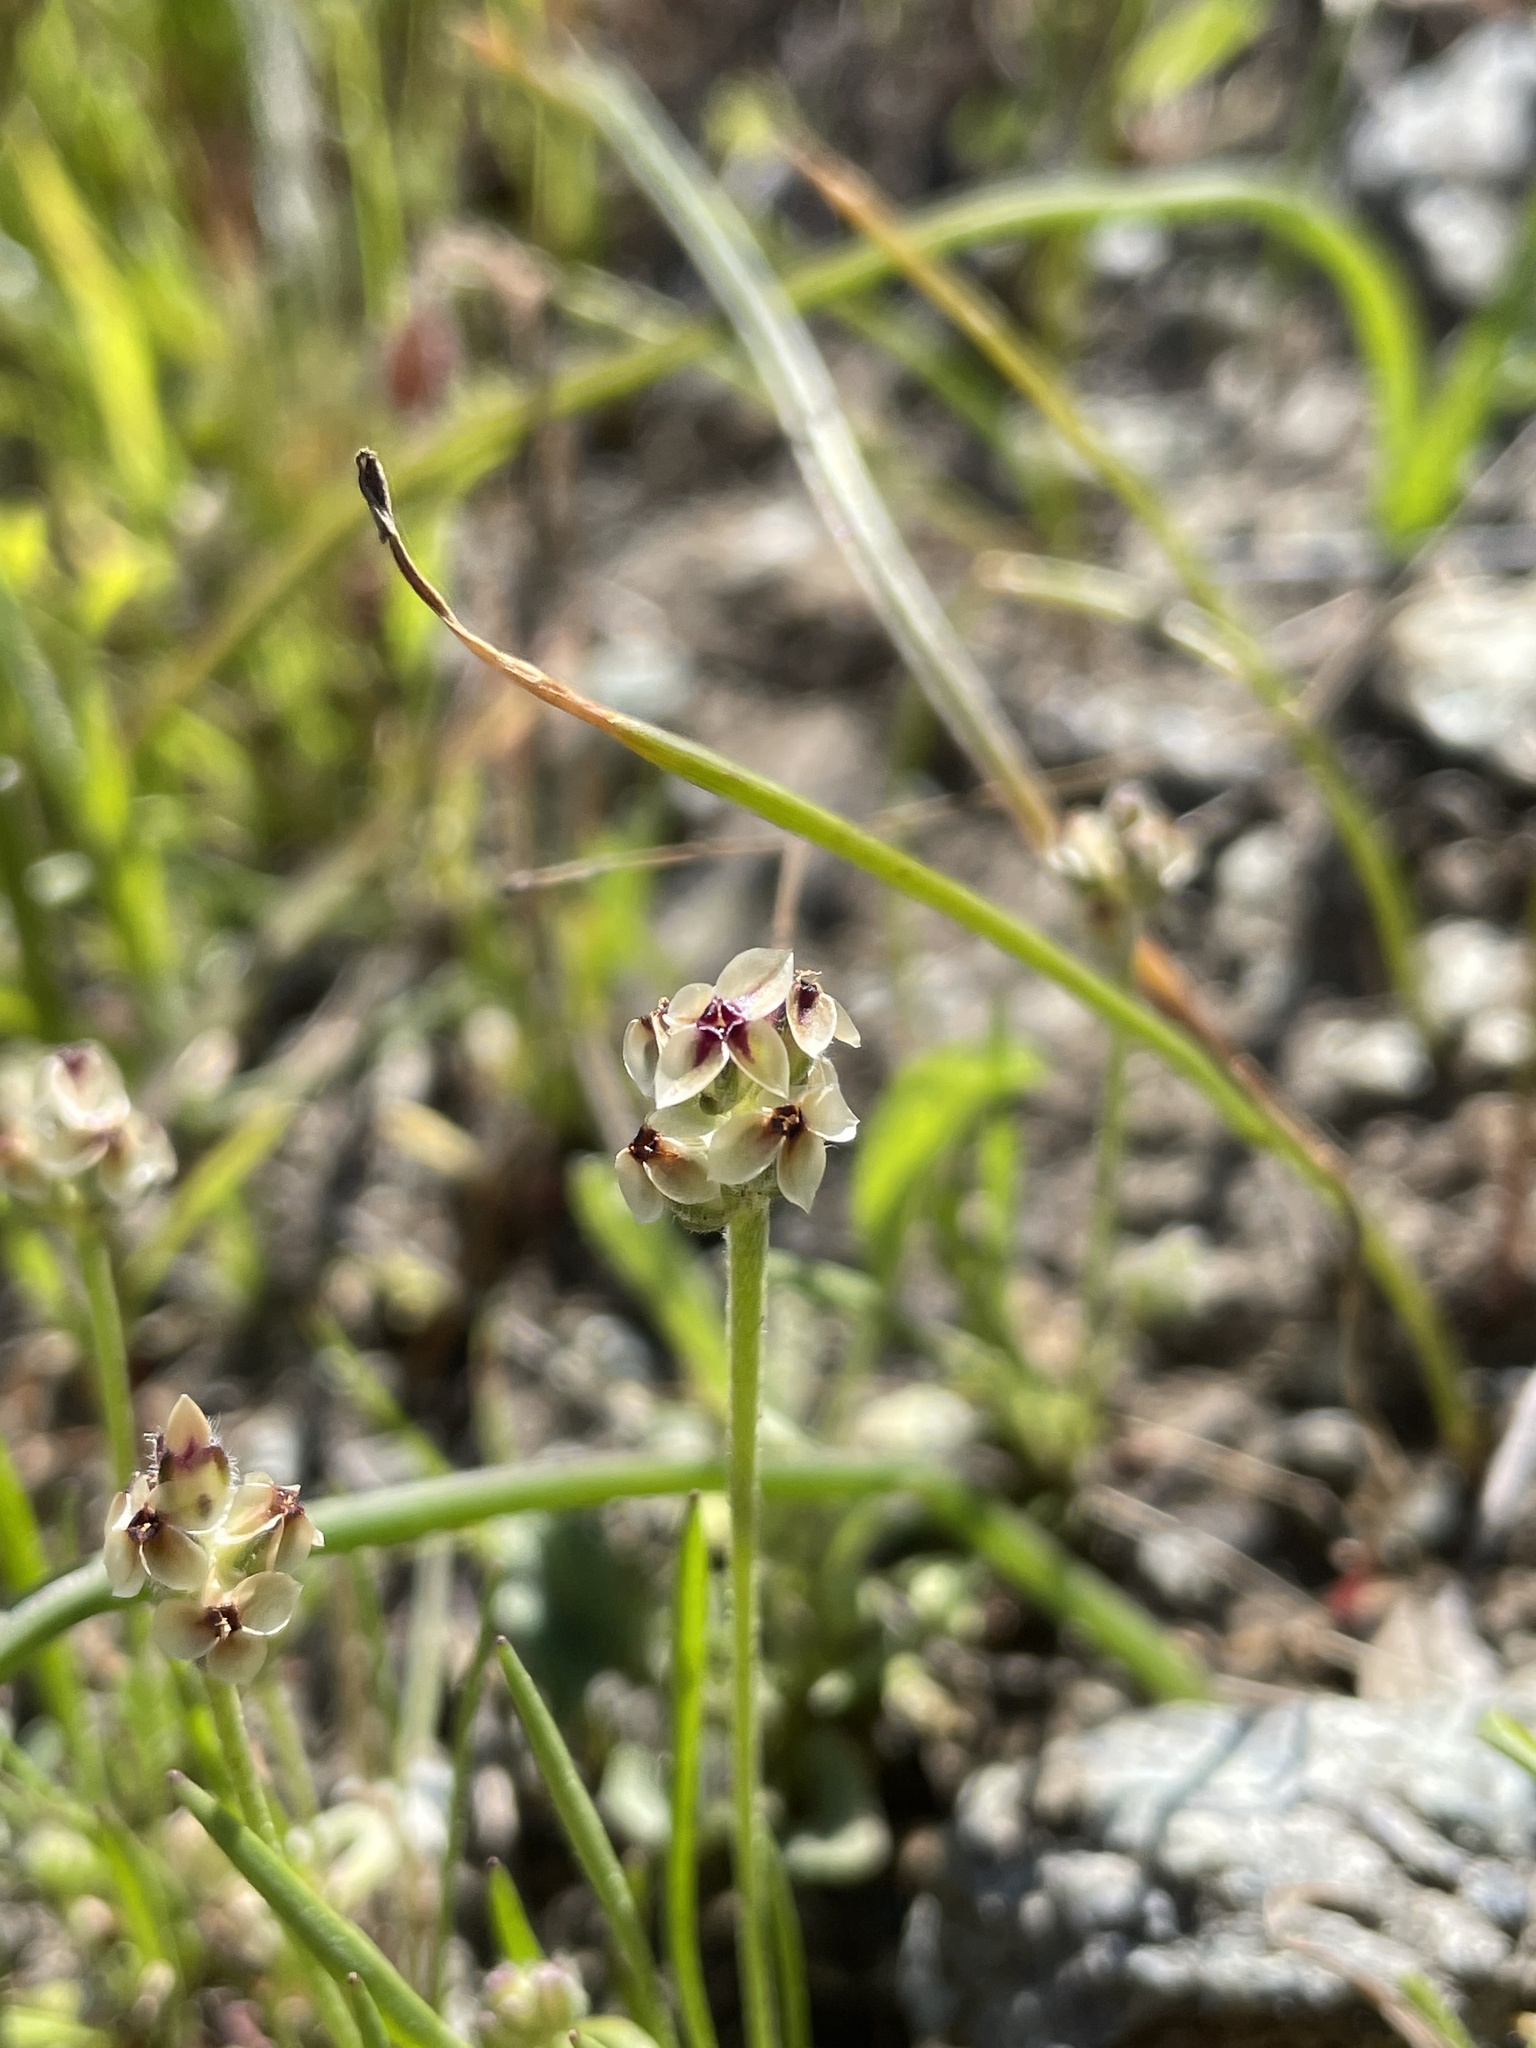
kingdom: Plantae
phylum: Tracheophyta
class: Magnoliopsida
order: Lamiales
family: Plantaginaceae
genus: Plantago
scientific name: Plantago erecta
